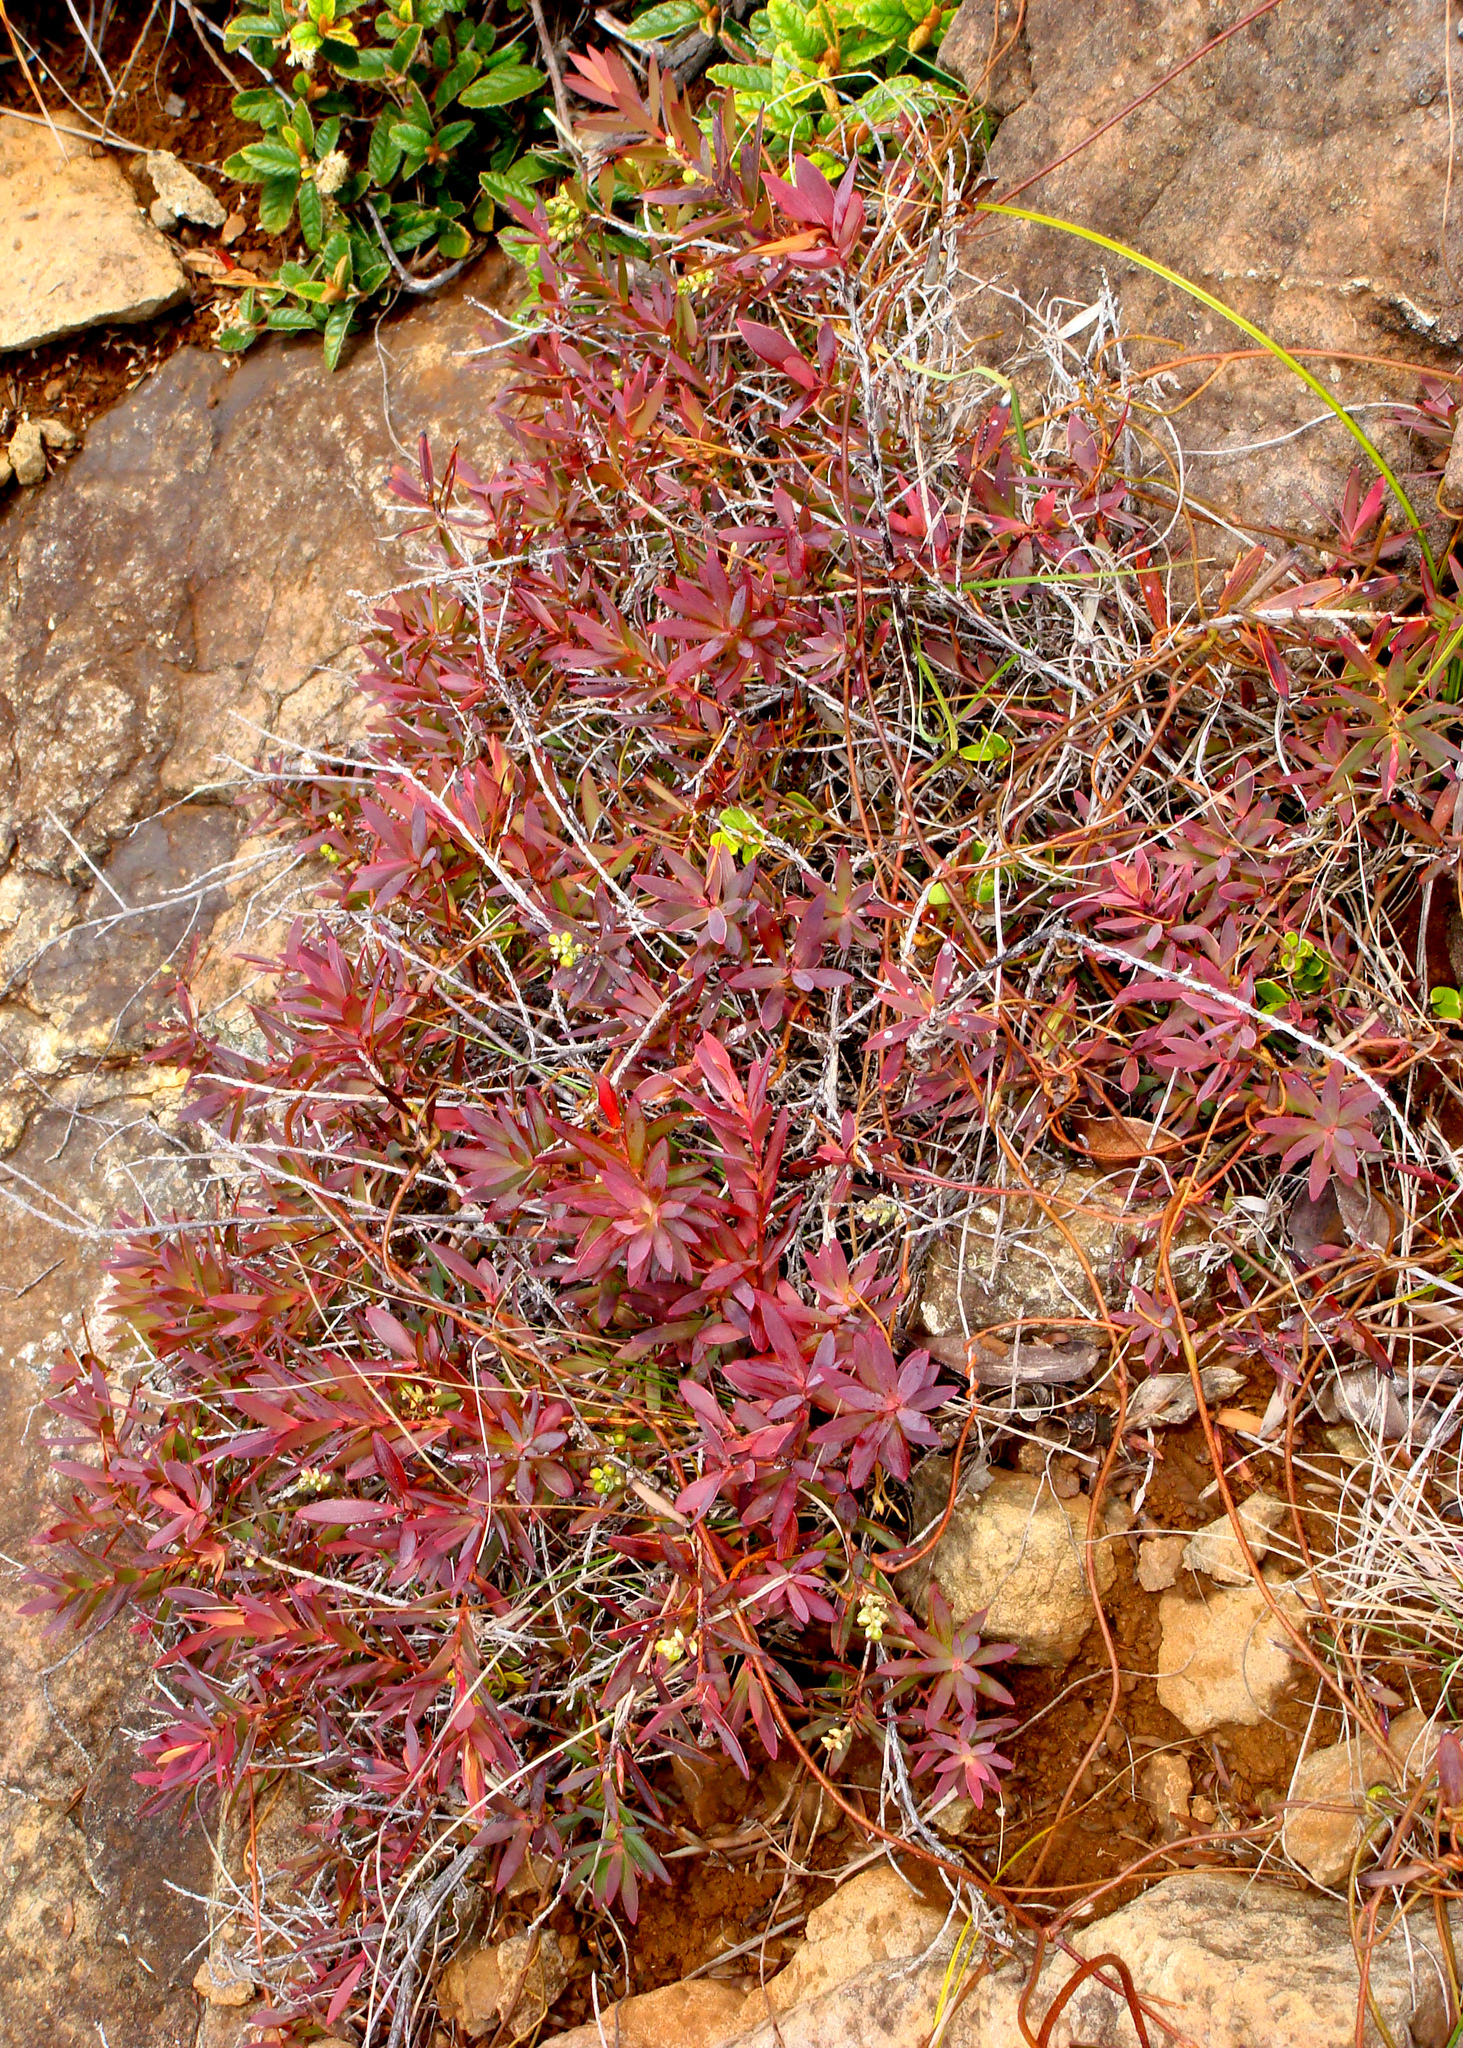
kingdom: Plantae
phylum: Tracheophyta
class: Magnoliopsida
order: Ericales
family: Ericaceae
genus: Leucopogon
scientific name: Leucopogon xerampelinus
